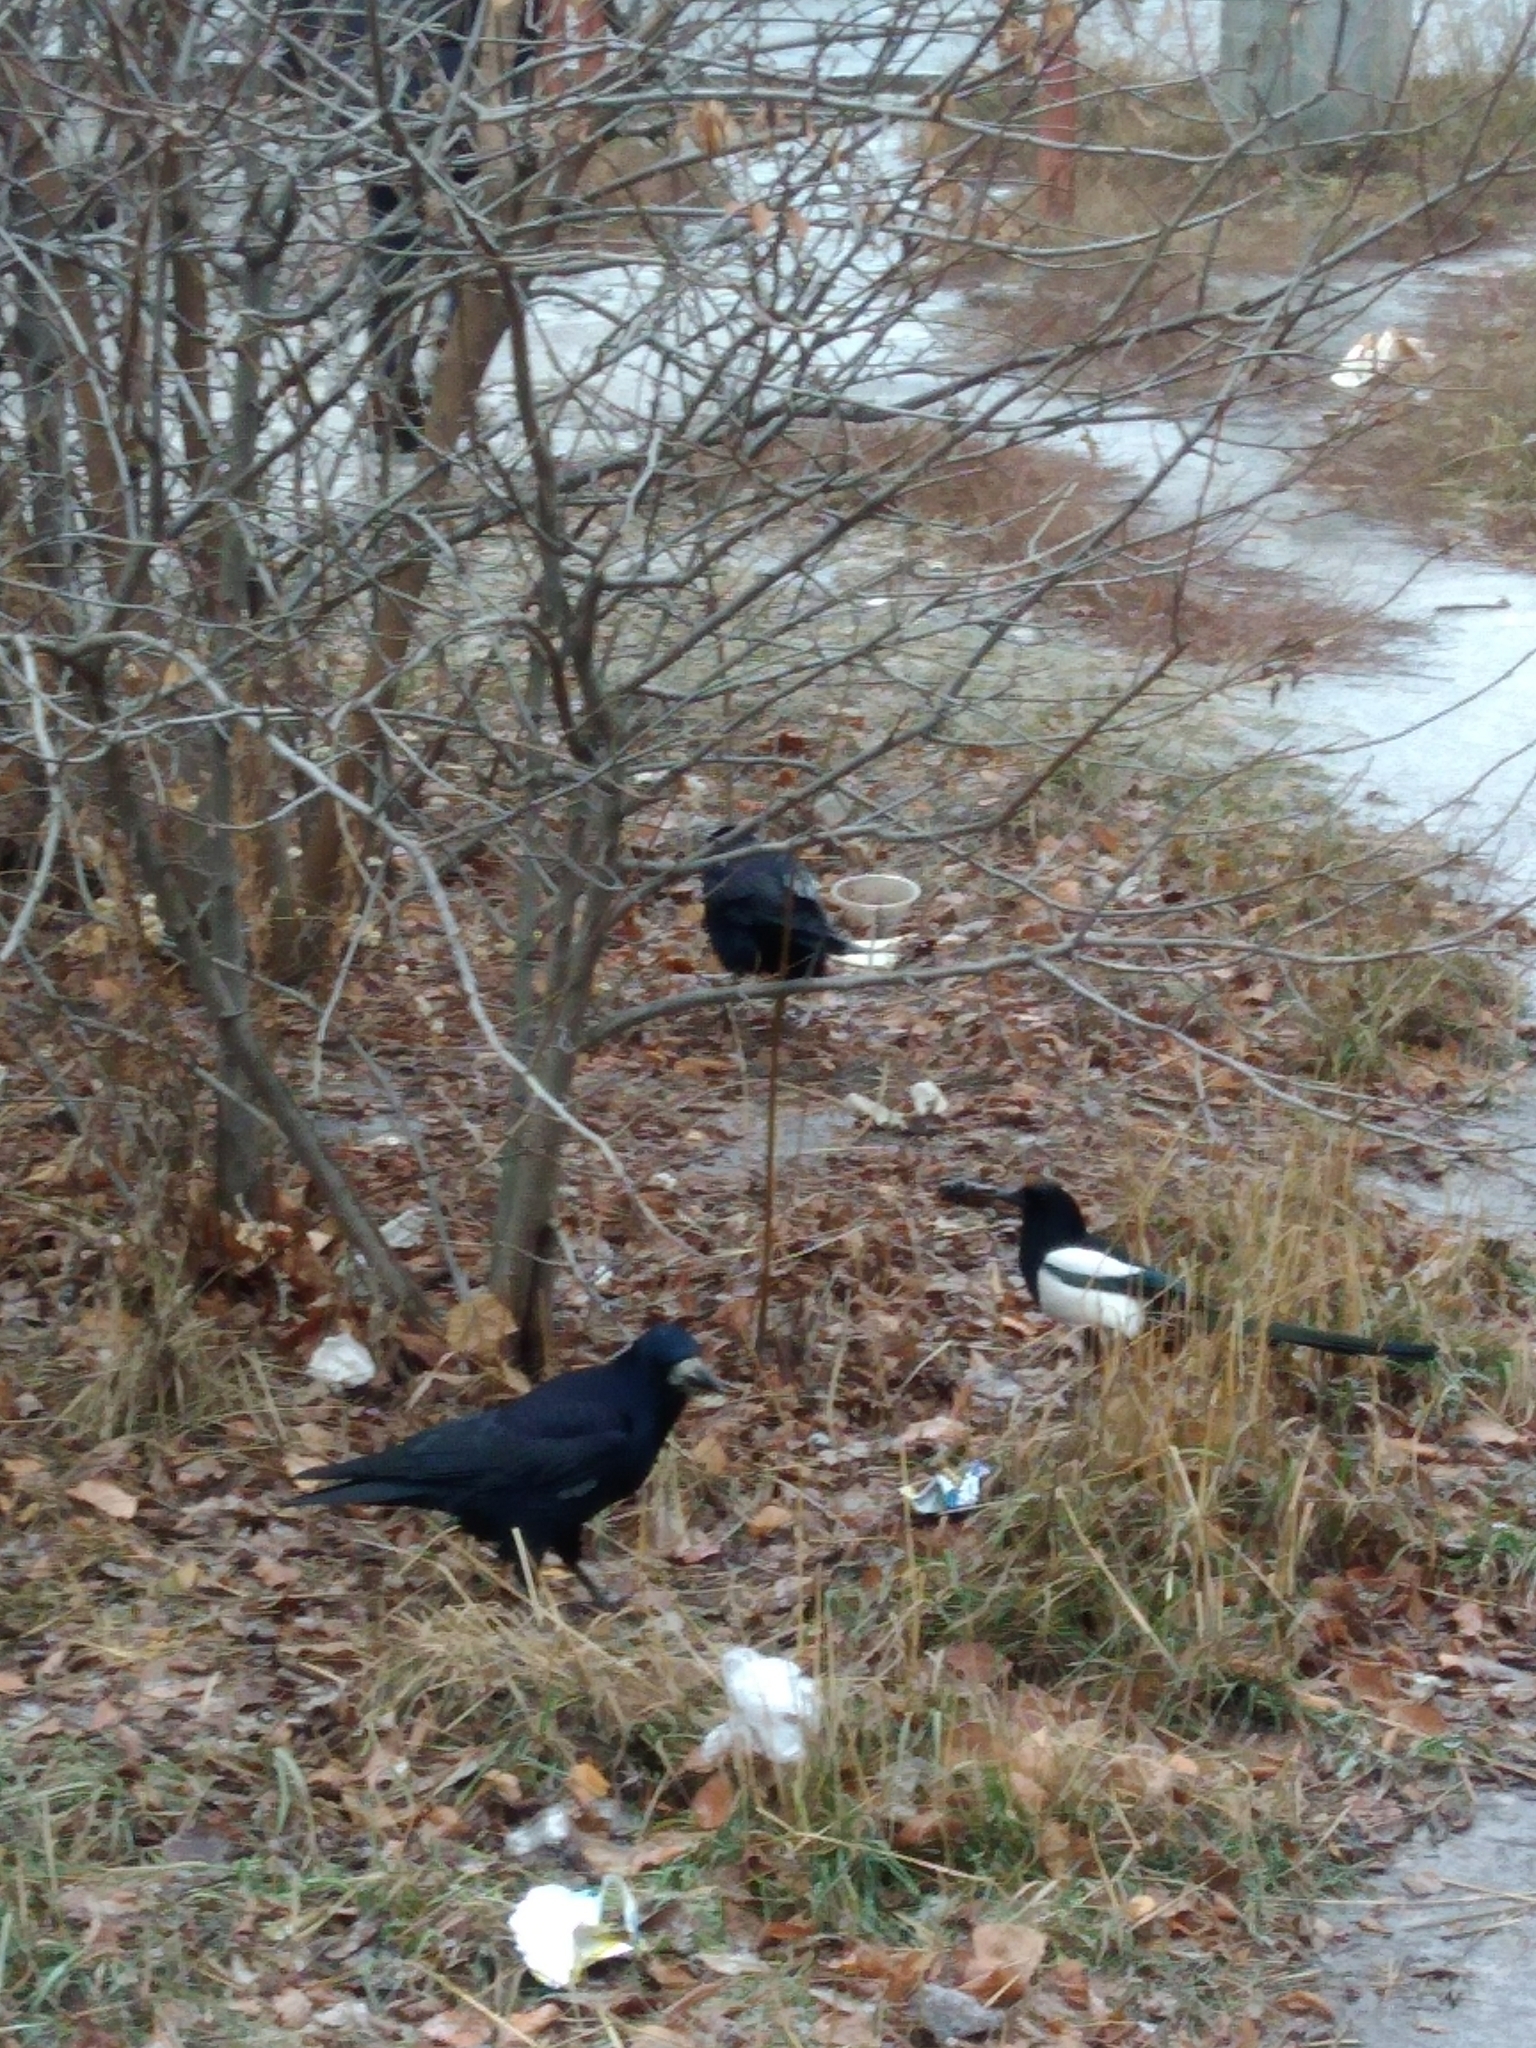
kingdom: Animalia
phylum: Chordata
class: Aves
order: Passeriformes
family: Corvidae
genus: Corvus
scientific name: Corvus frugilegus
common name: Rook
